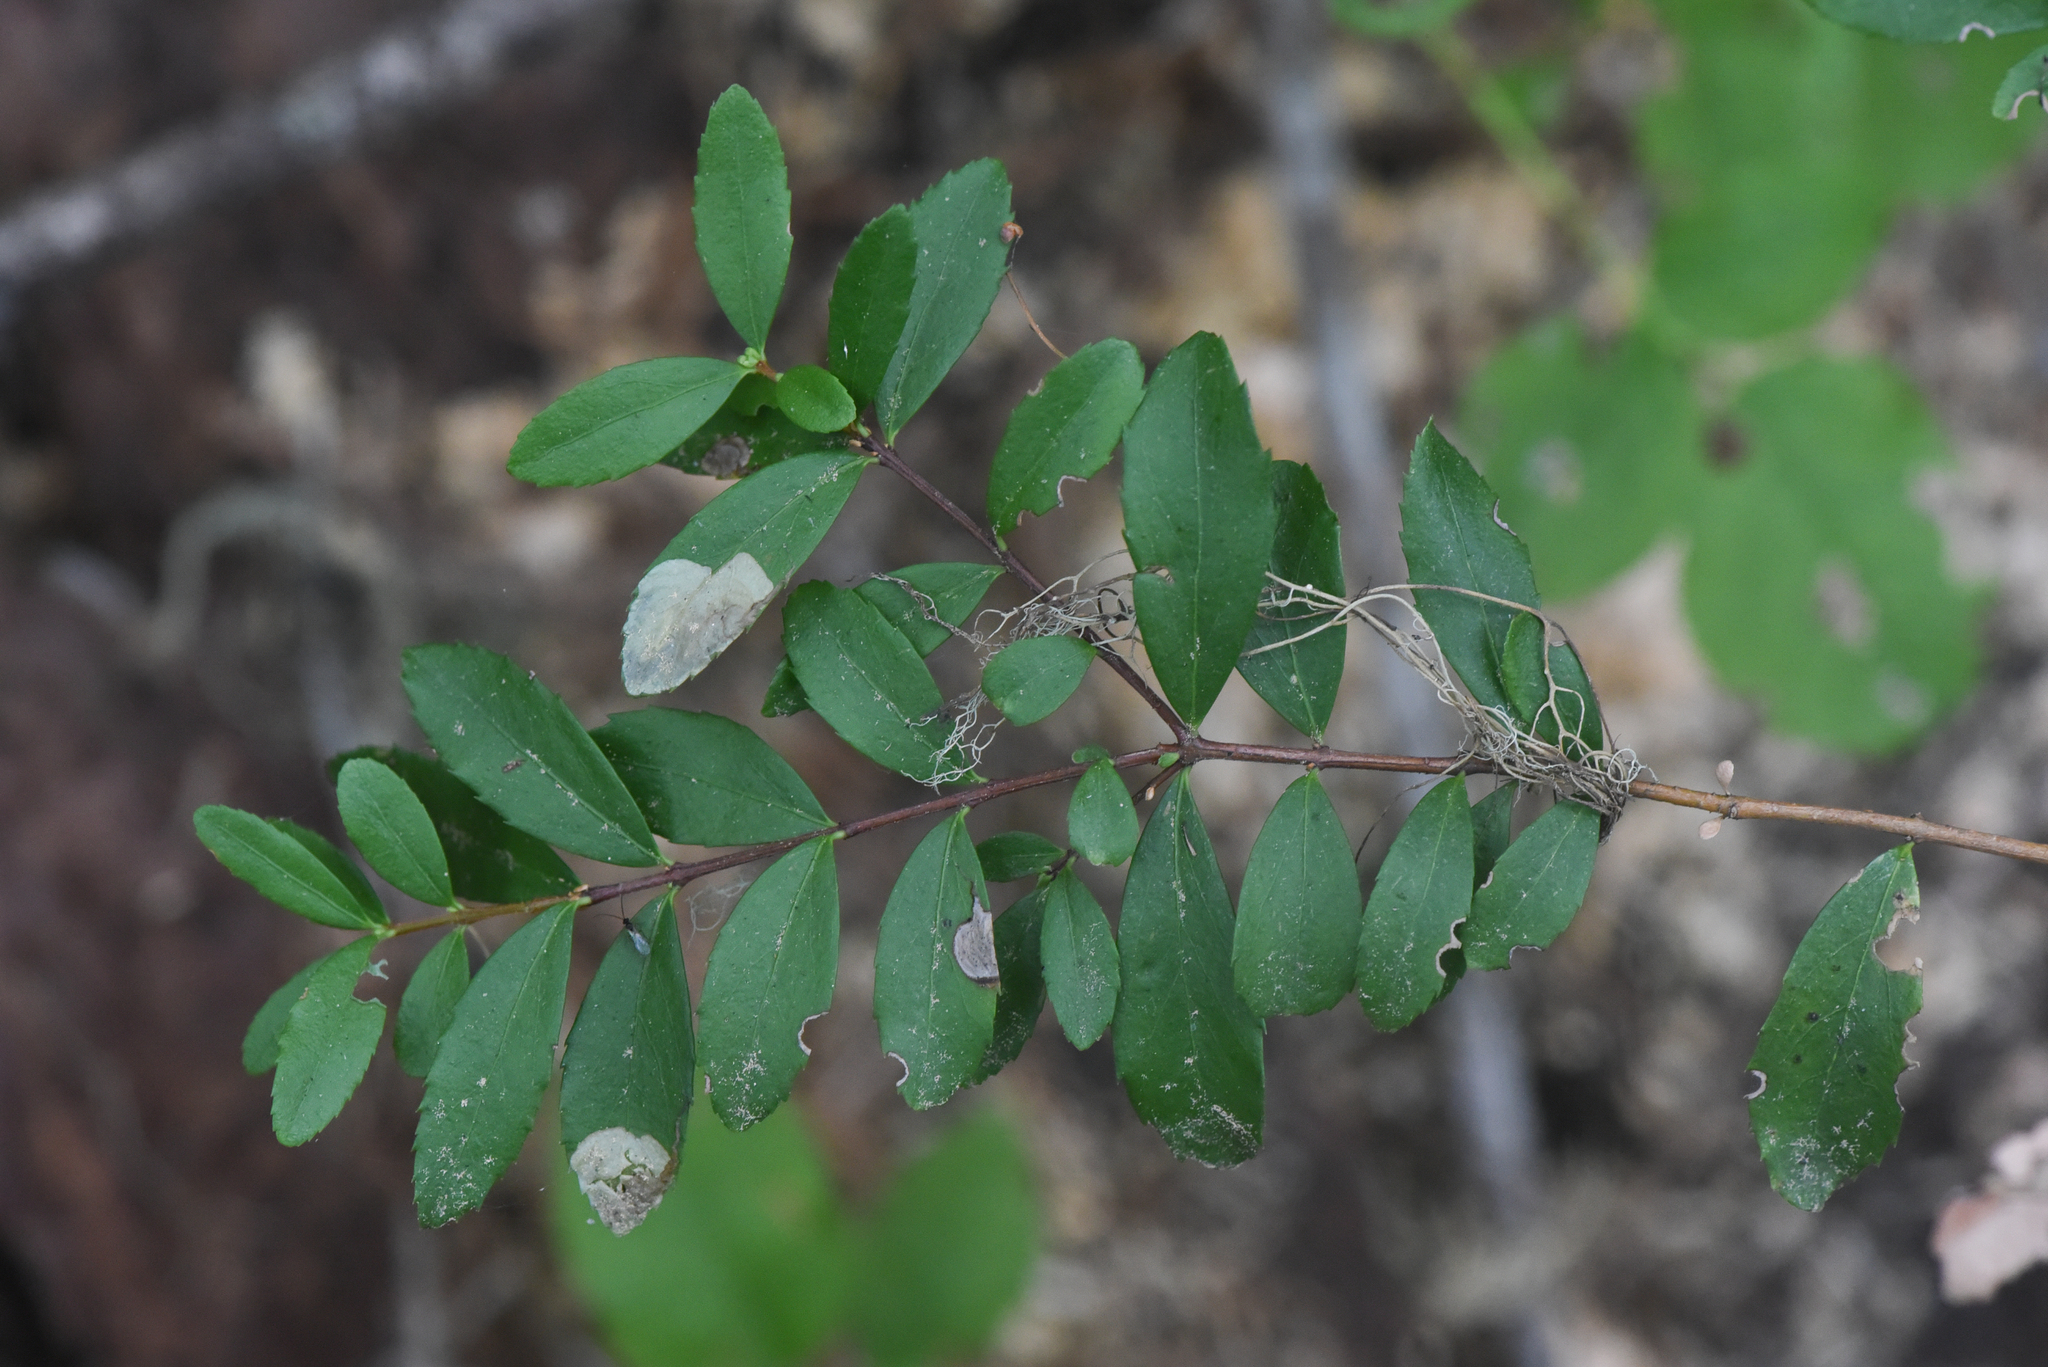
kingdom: Animalia
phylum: Arthropoda
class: Insecta
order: Lepidoptera
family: Lyonetiidae
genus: Leucoptera
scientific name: Leucoptera pachystimella
